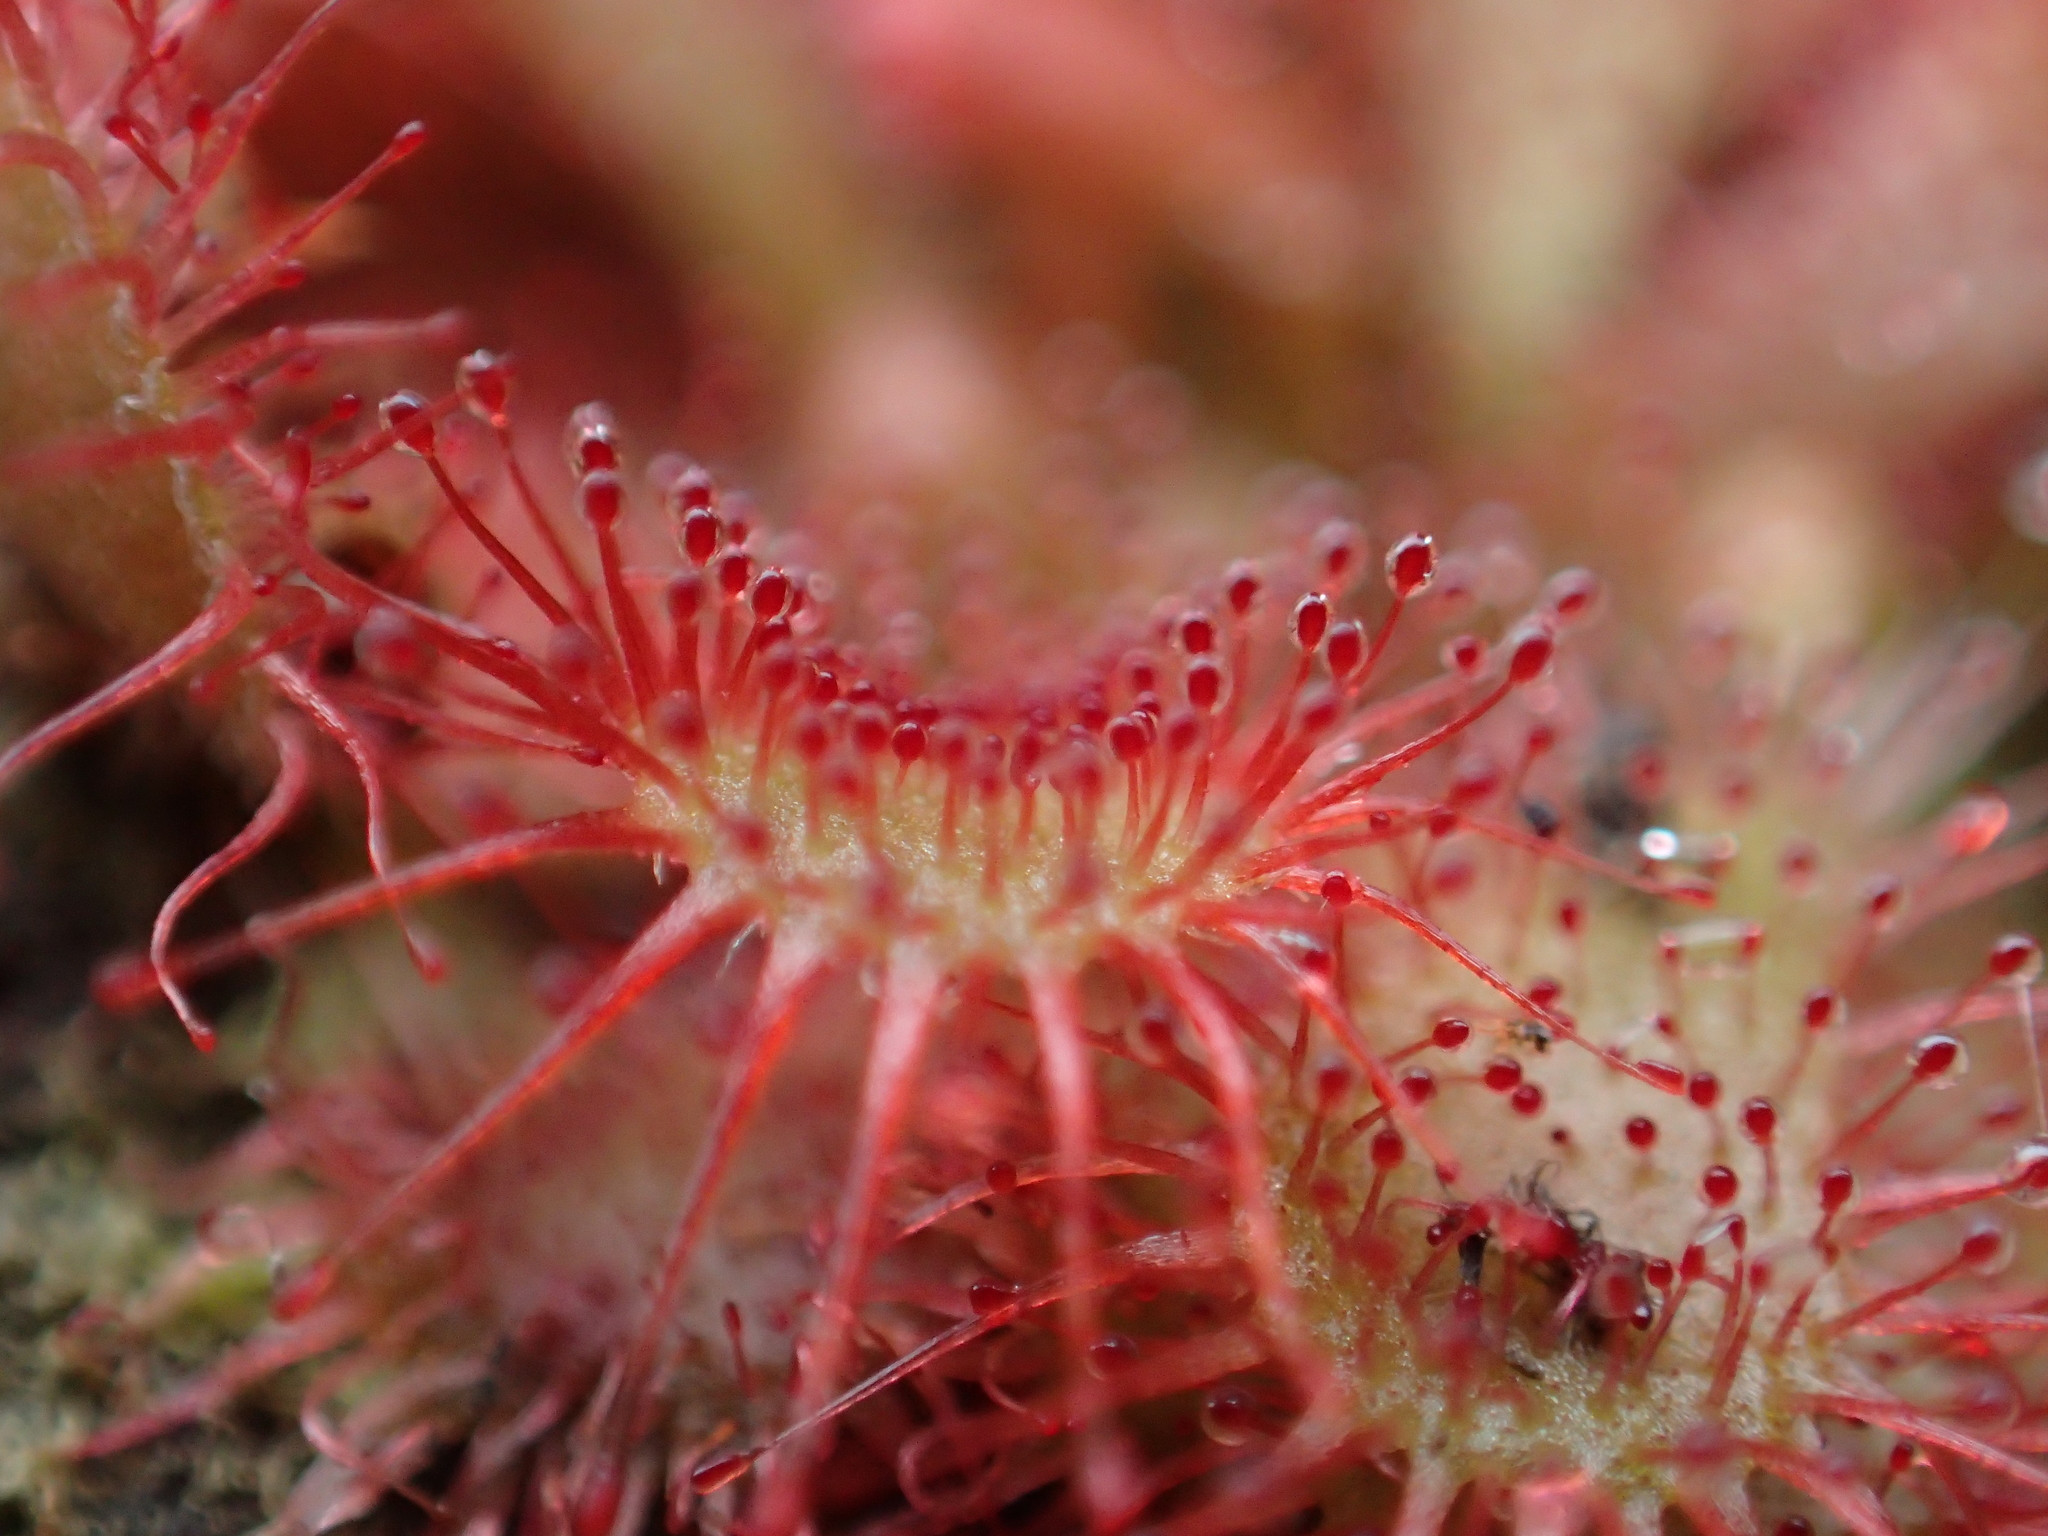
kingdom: Plantae
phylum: Tracheophyta
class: Magnoliopsida
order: Caryophyllales
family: Droseraceae
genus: Drosera
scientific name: Drosera spatulata
